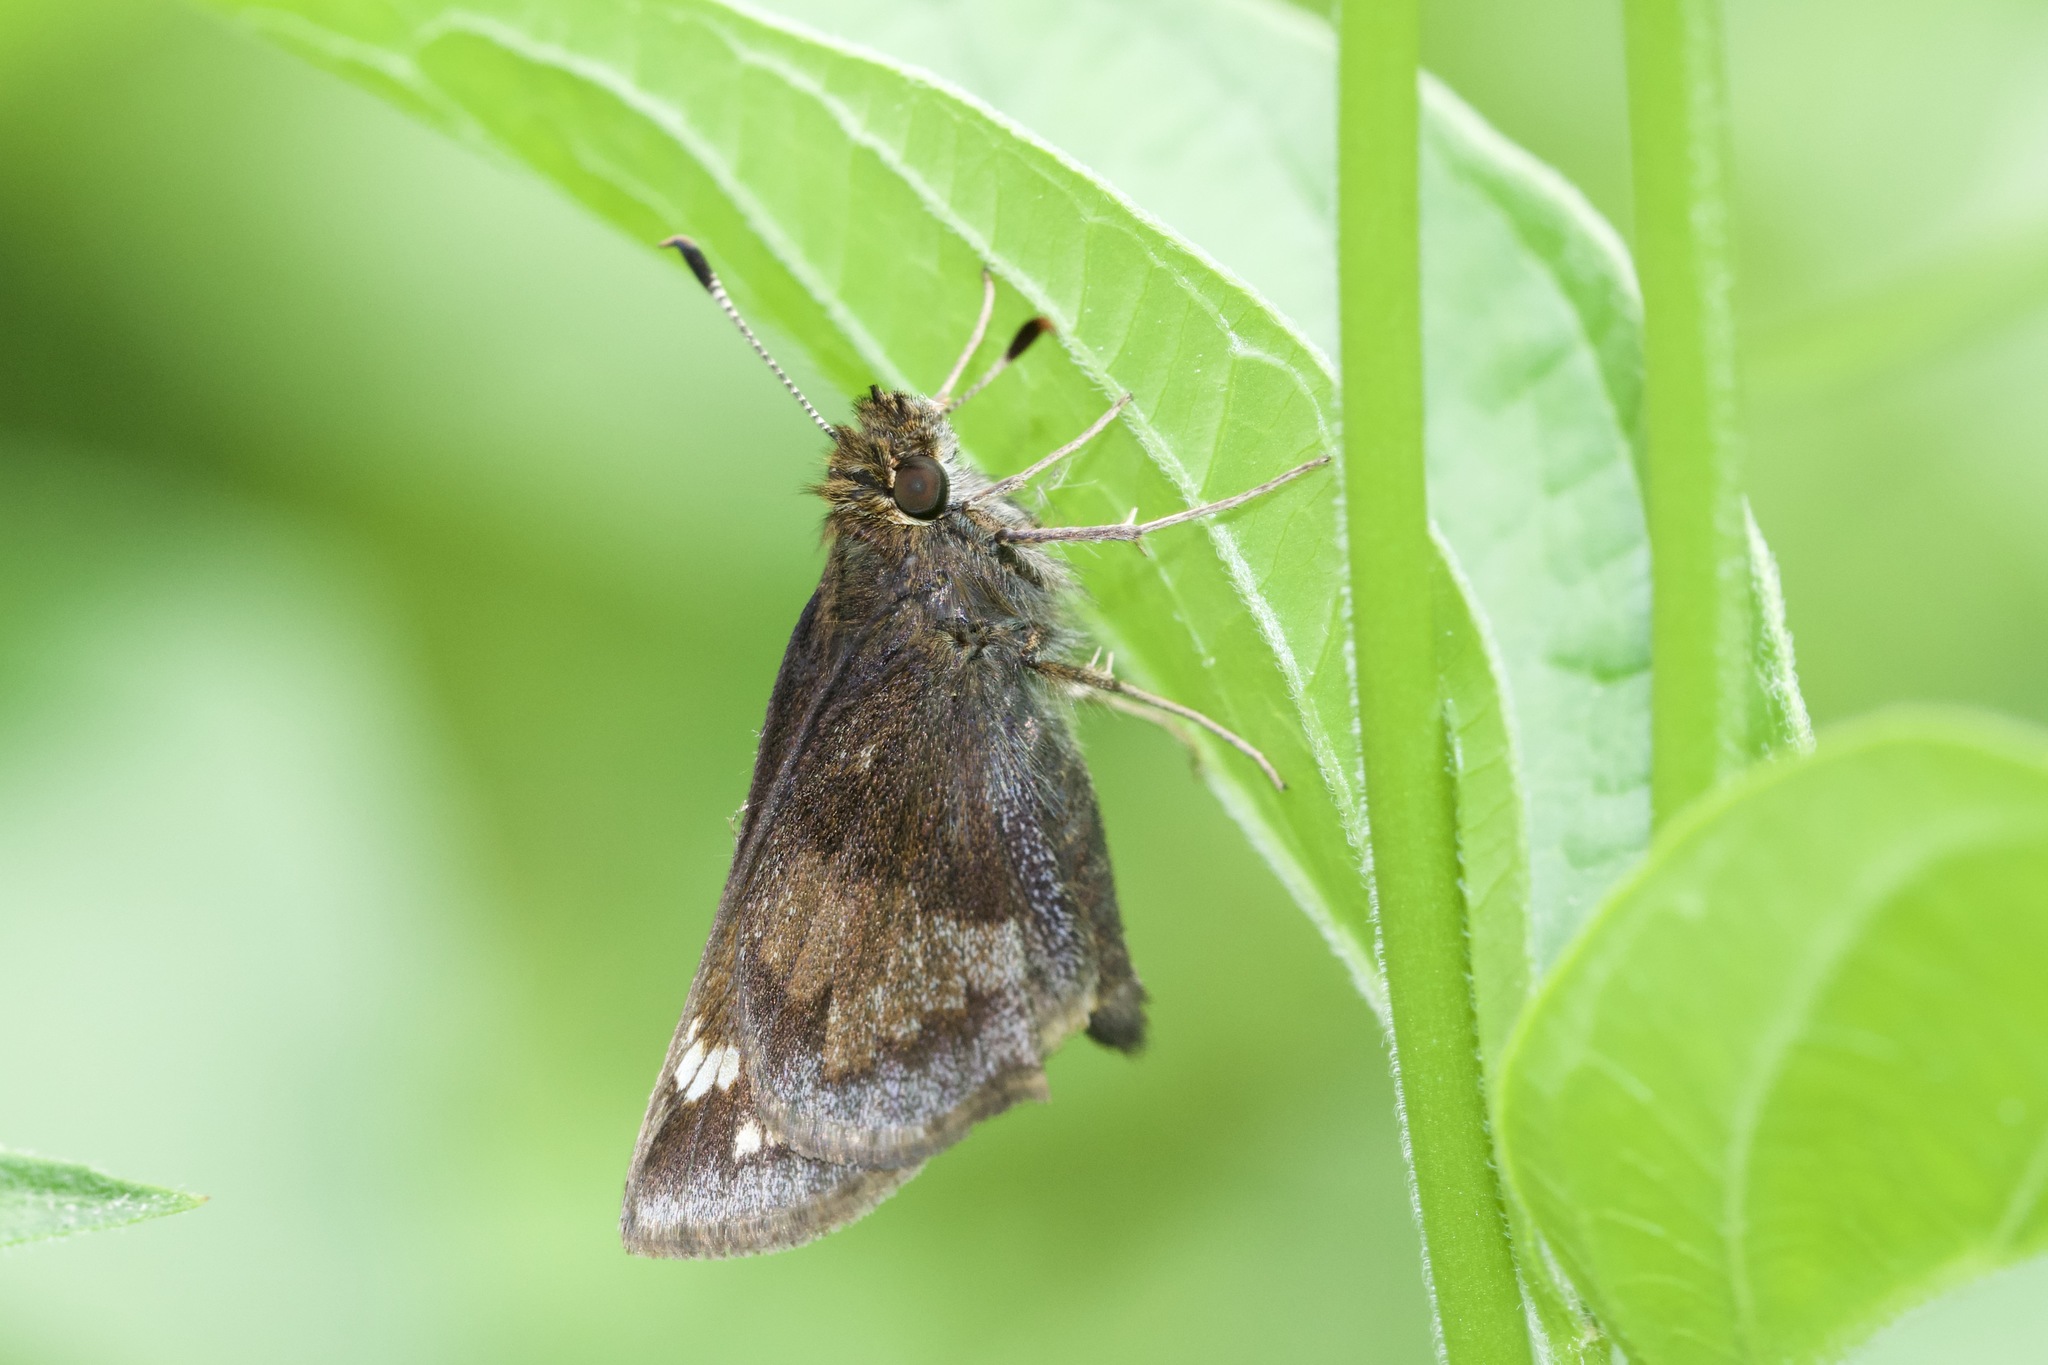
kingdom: Animalia
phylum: Arthropoda
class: Insecta
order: Lepidoptera
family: Hesperiidae
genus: Lon
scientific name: Lon hobomok
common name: Hobomok skipper
